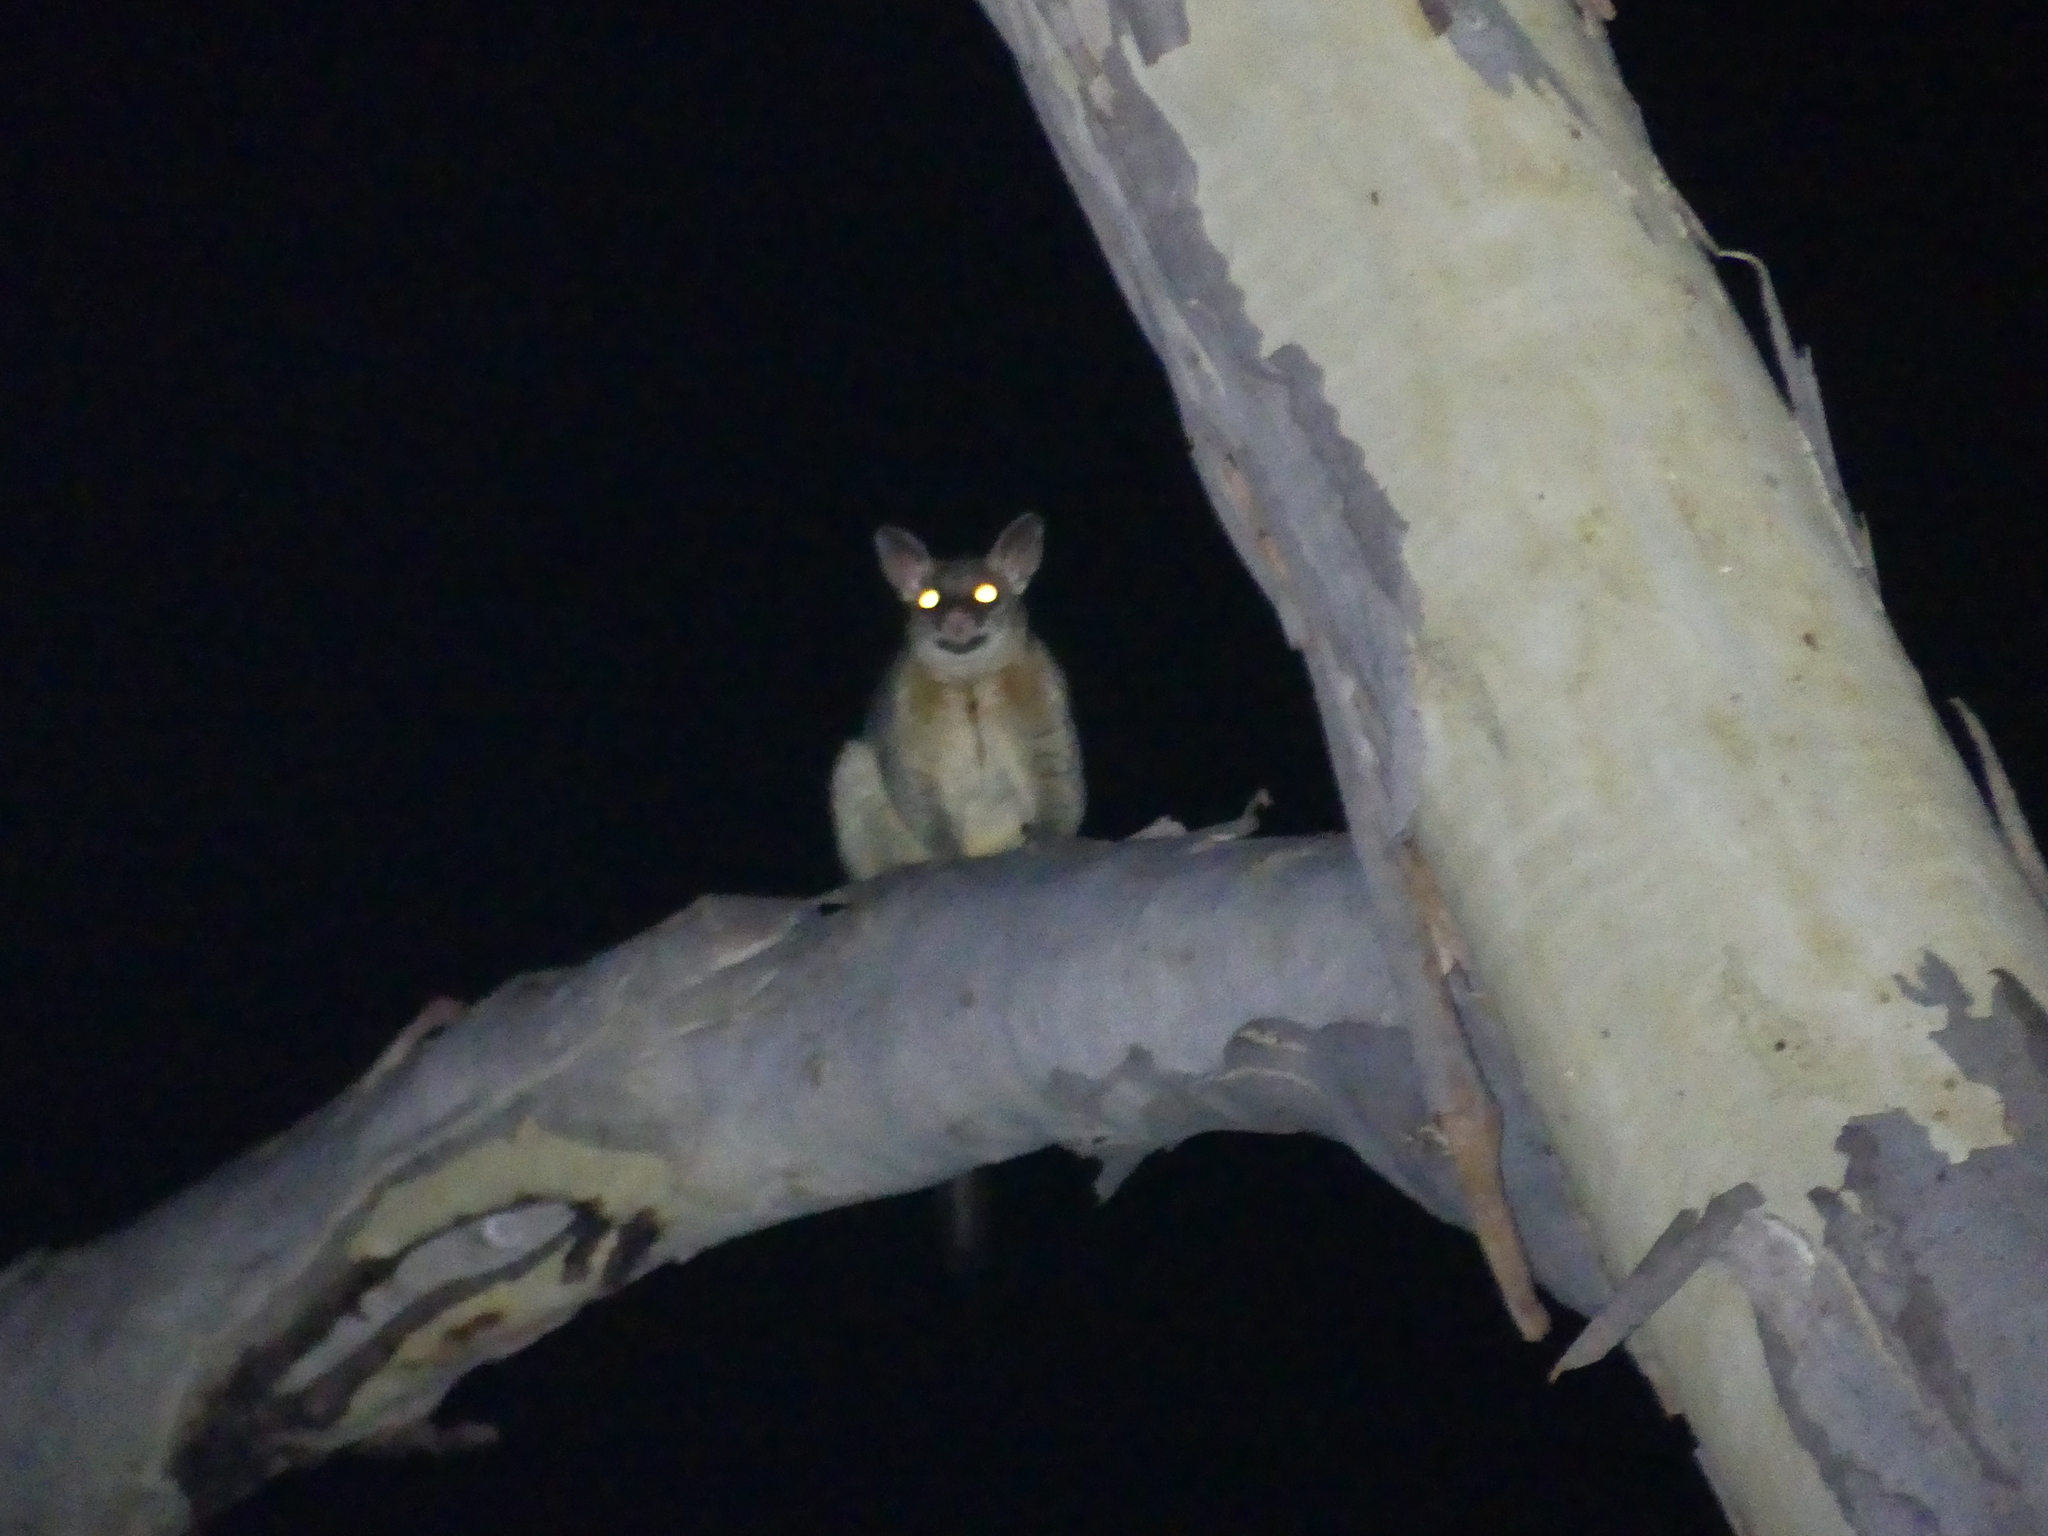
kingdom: Animalia
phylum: Chordata
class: Mammalia
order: Diprotodontia
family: Phalangeridae
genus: Trichosurus
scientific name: Trichosurus vulpecula
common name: Common brushtail
